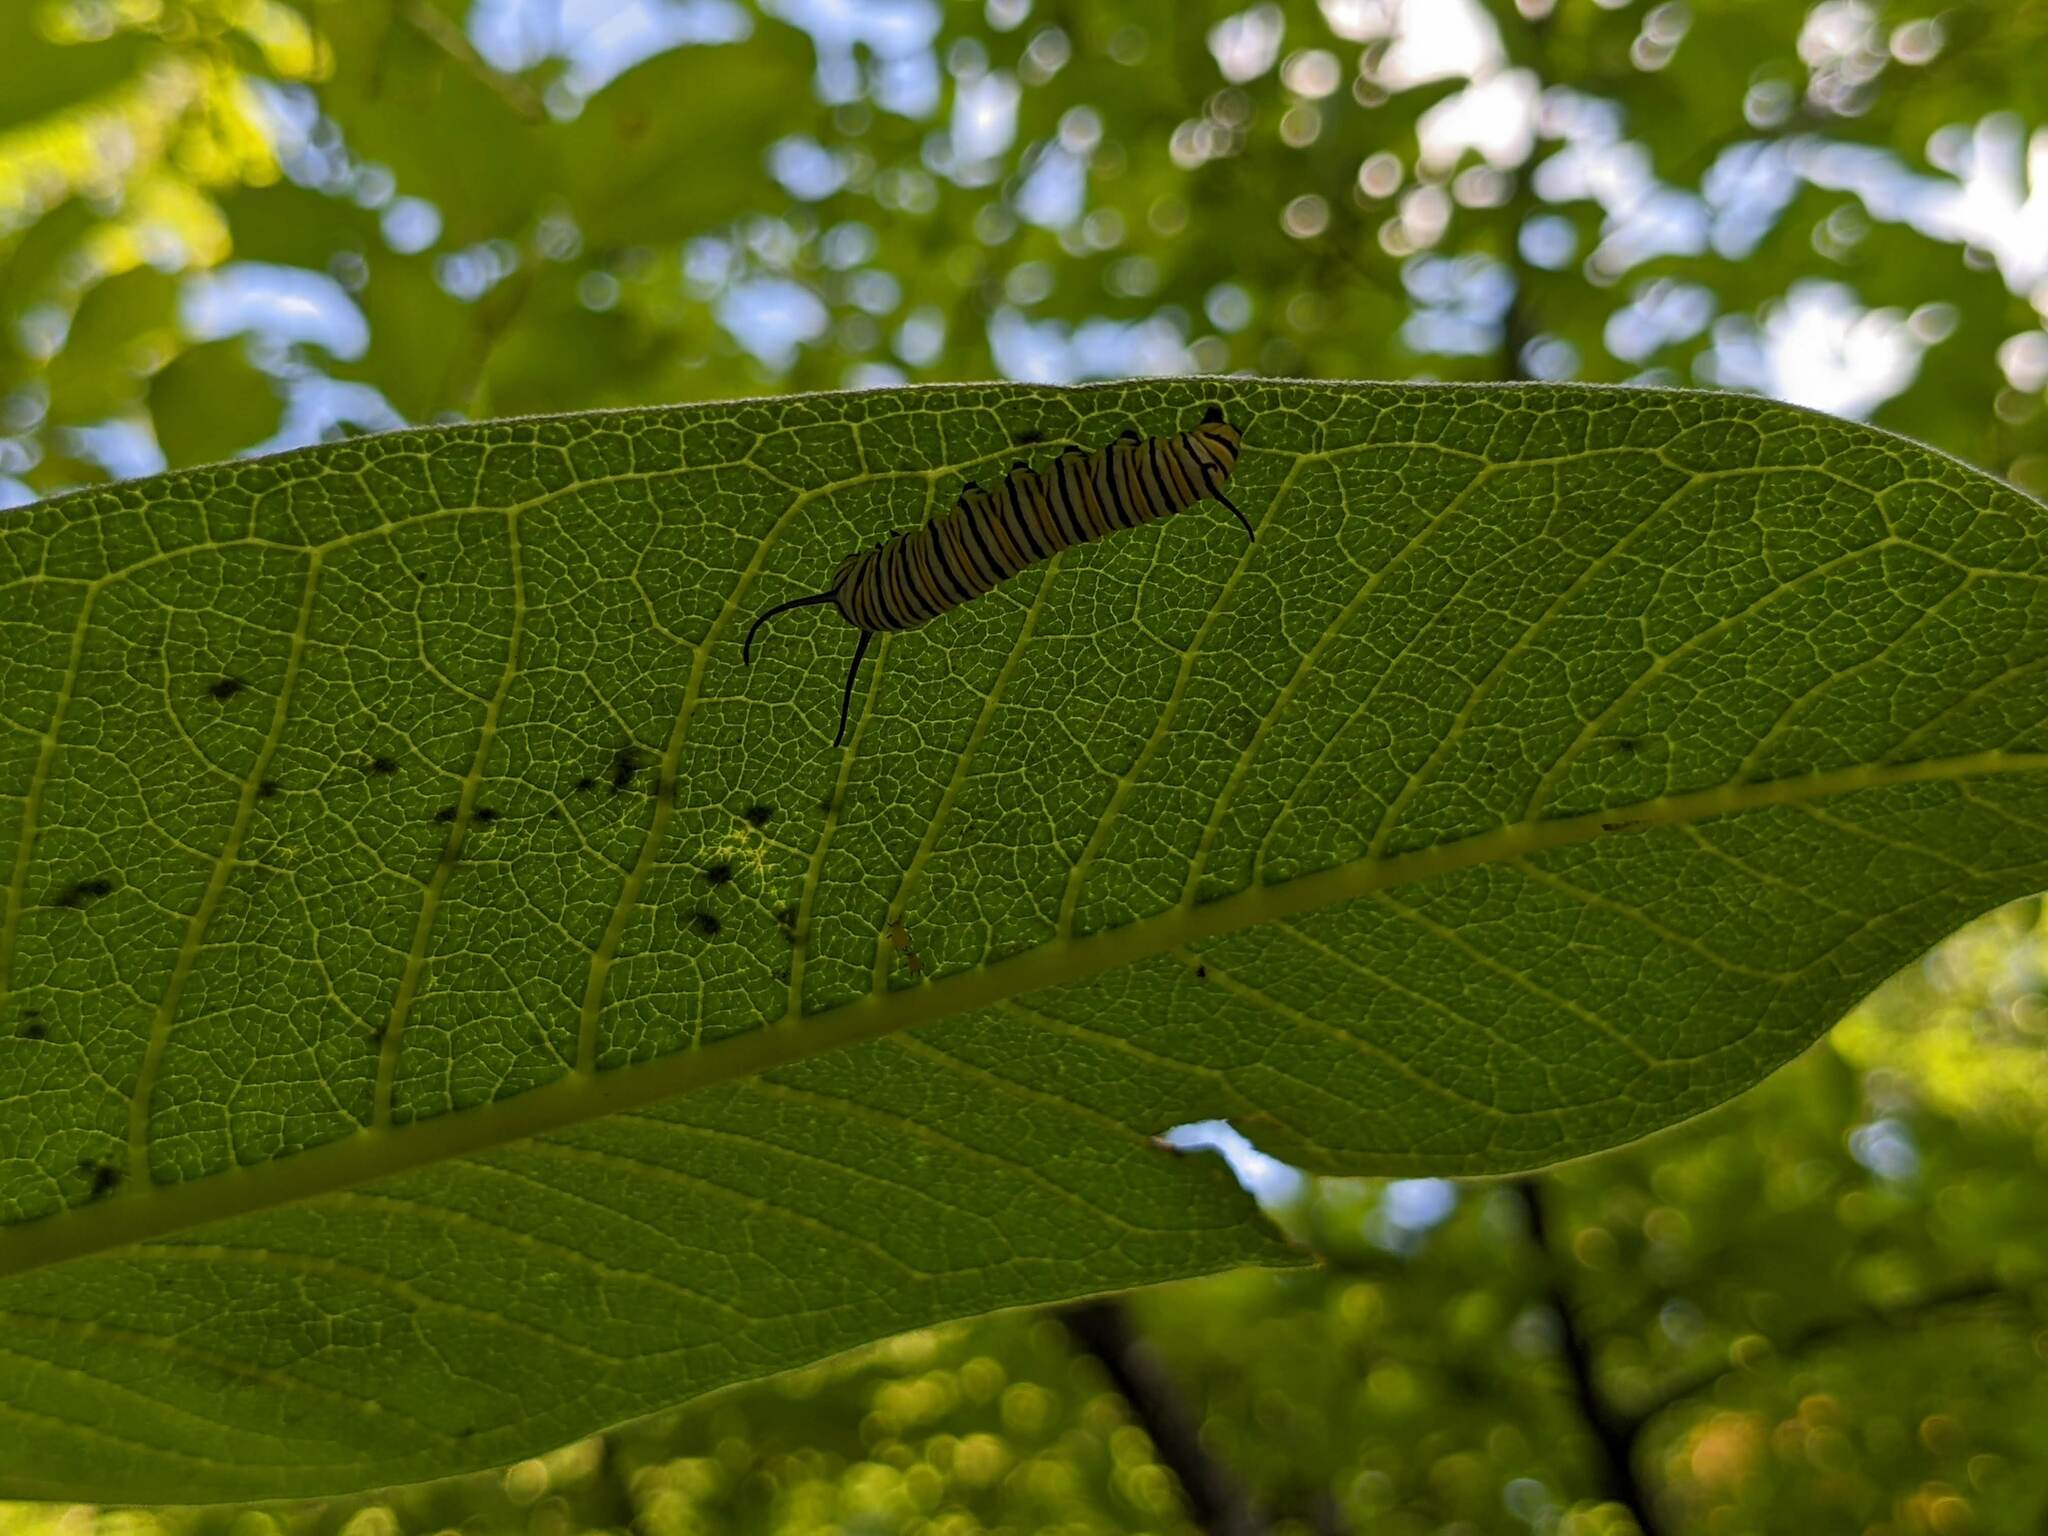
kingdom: Animalia
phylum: Arthropoda
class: Insecta
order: Lepidoptera
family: Nymphalidae
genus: Danaus
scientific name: Danaus plexippus
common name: Monarch
